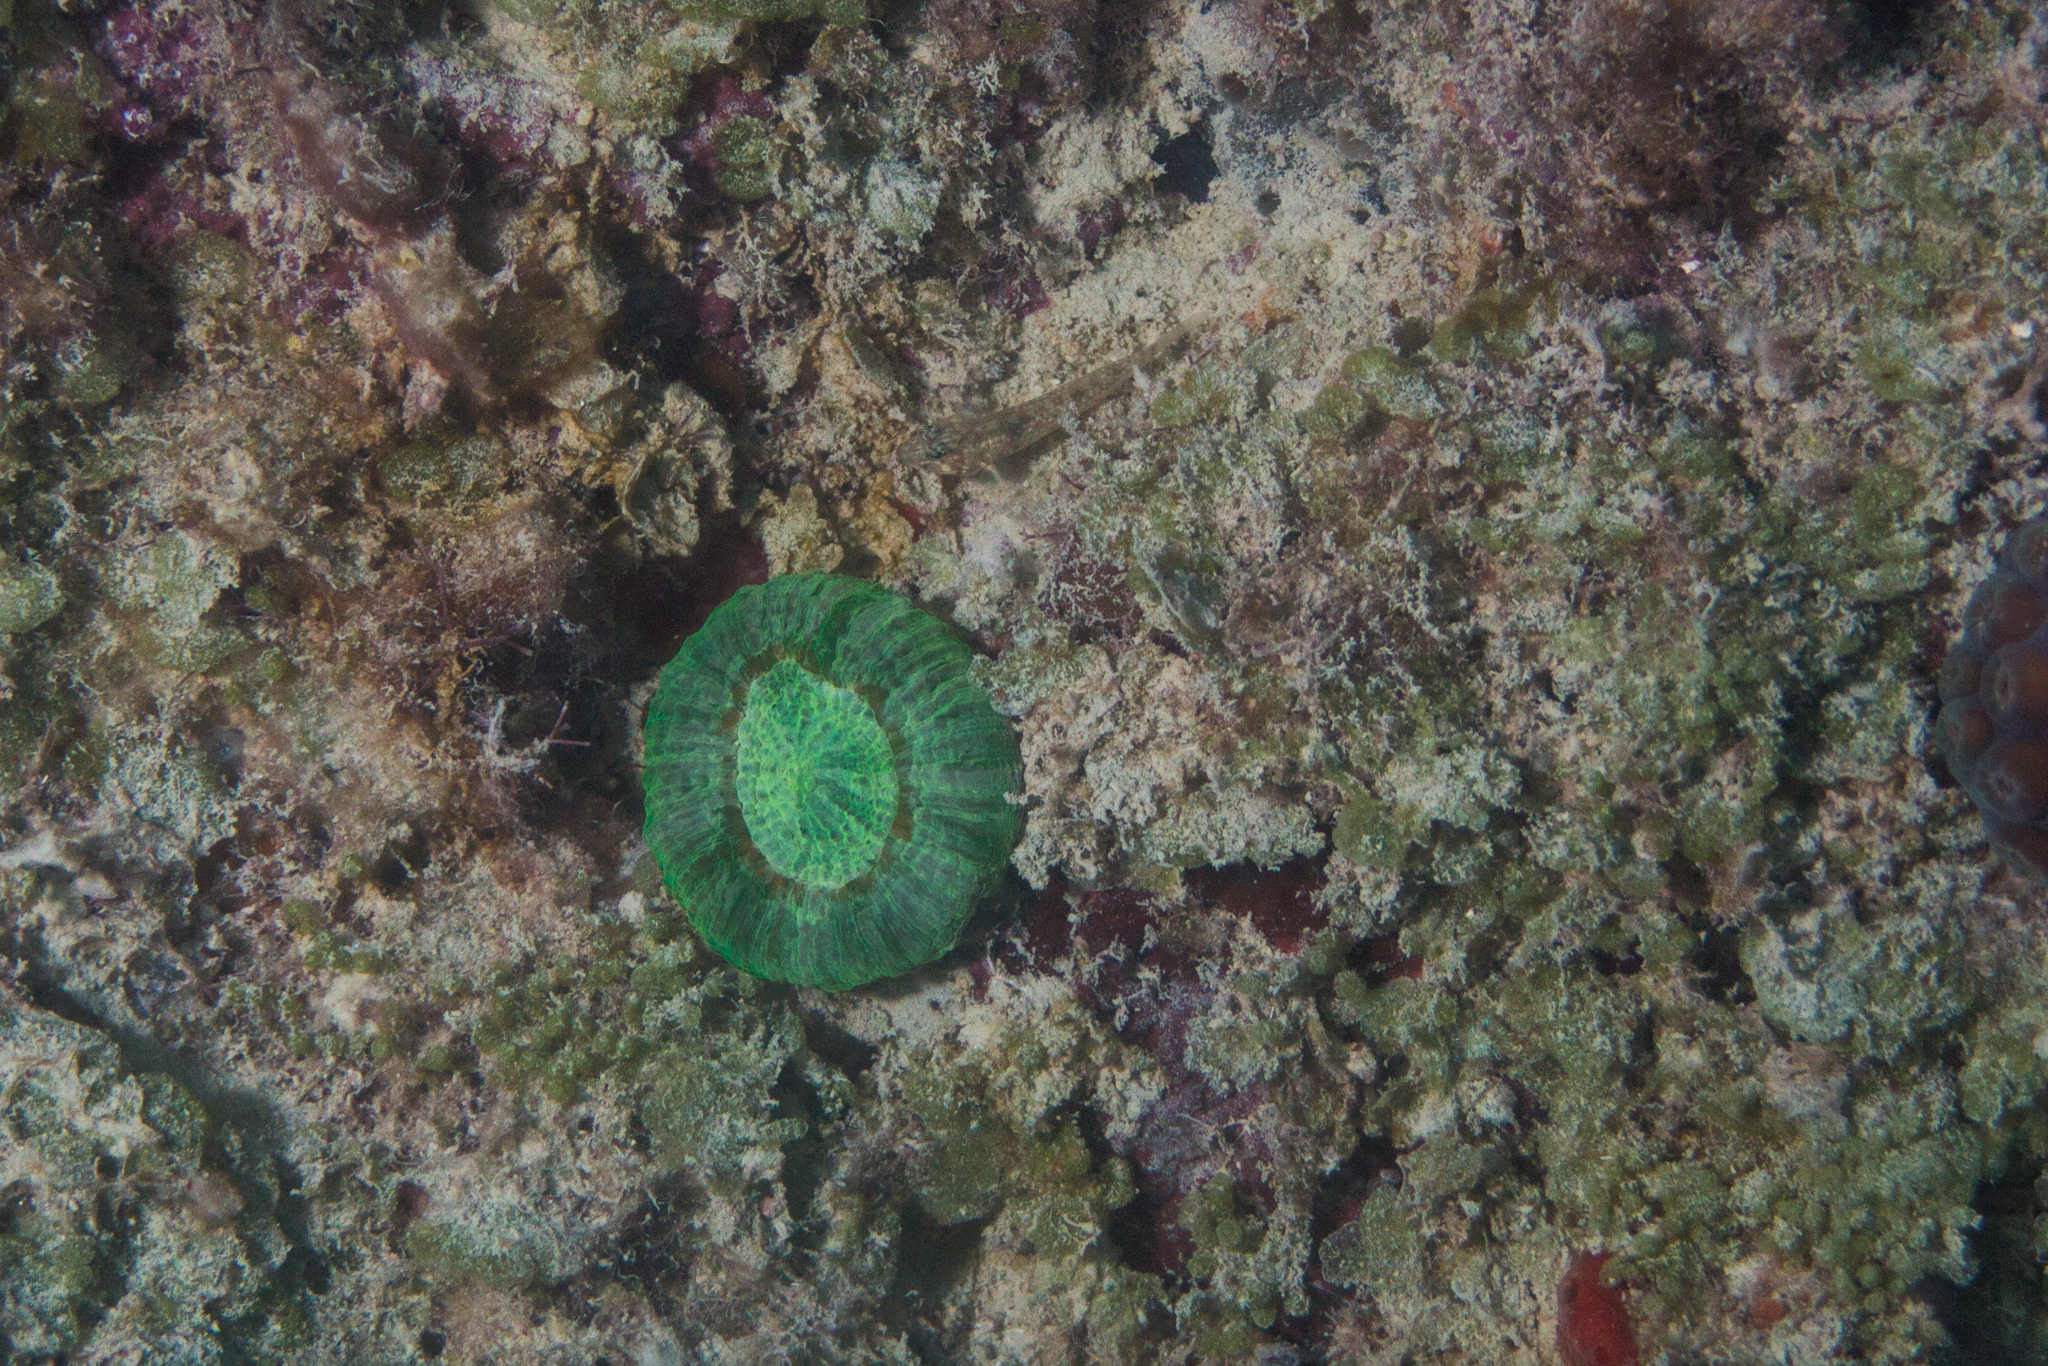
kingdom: Animalia
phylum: Cnidaria
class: Anthozoa
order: Scleractinia
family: Faviidae
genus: Scolymia
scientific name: Scolymia cubensis
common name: Artichoke coral
